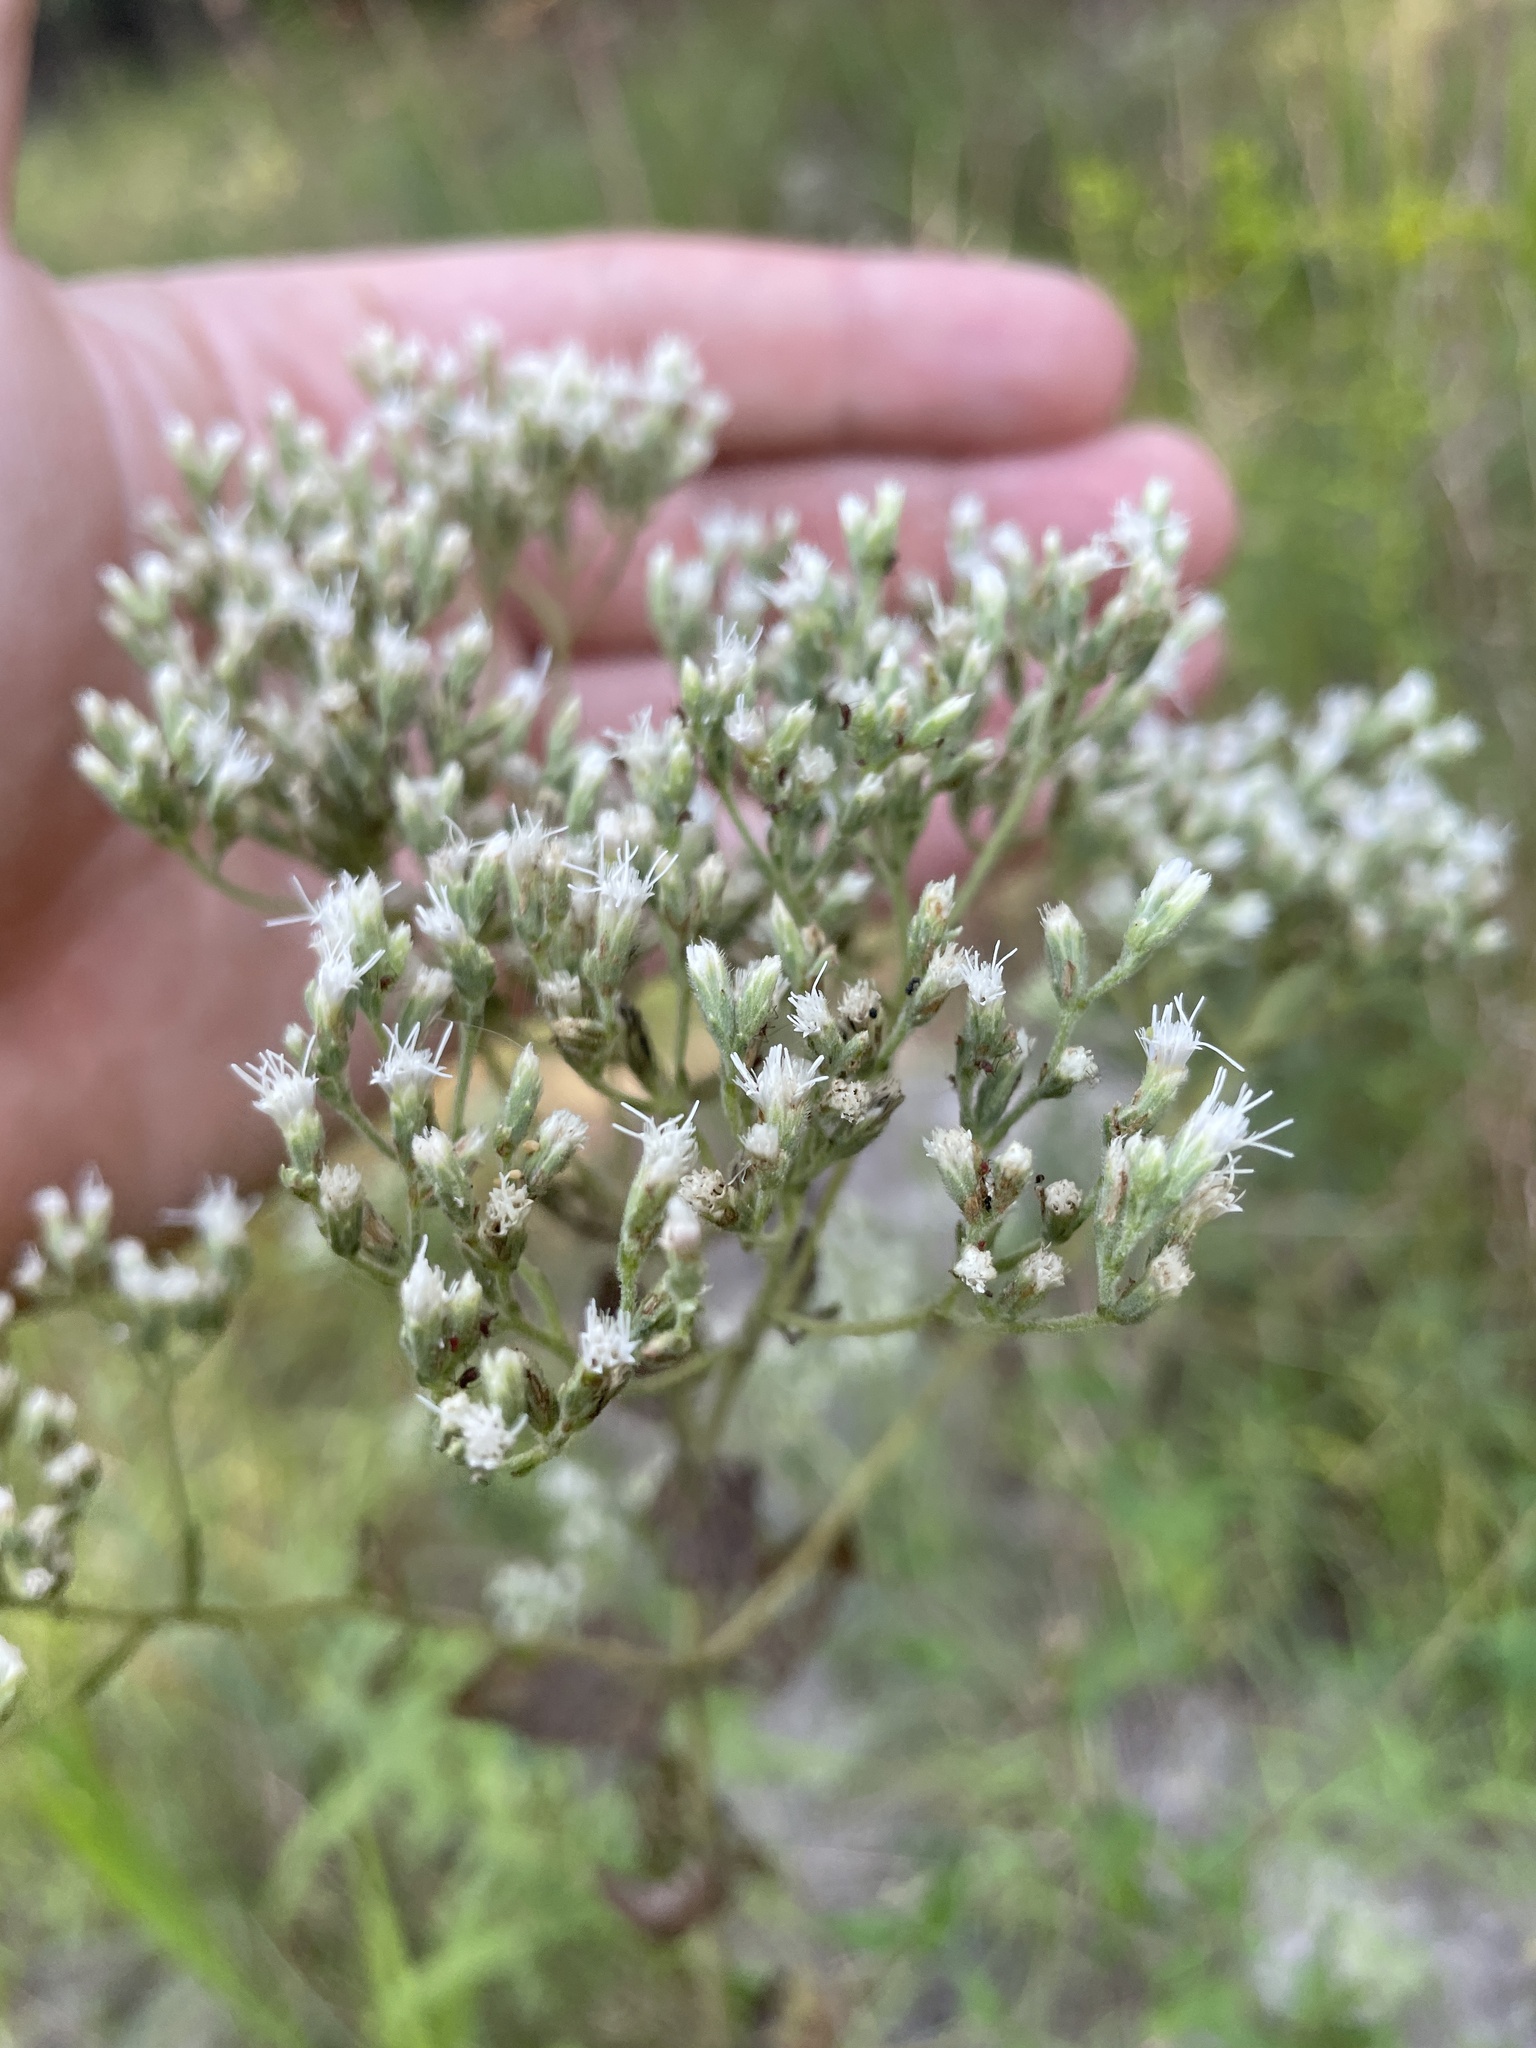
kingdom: Plantae
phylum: Tracheophyta
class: Magnoliopsida
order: Asterales
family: Asteraceae
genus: Eupatorium
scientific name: Eupatorium rotundifolium
